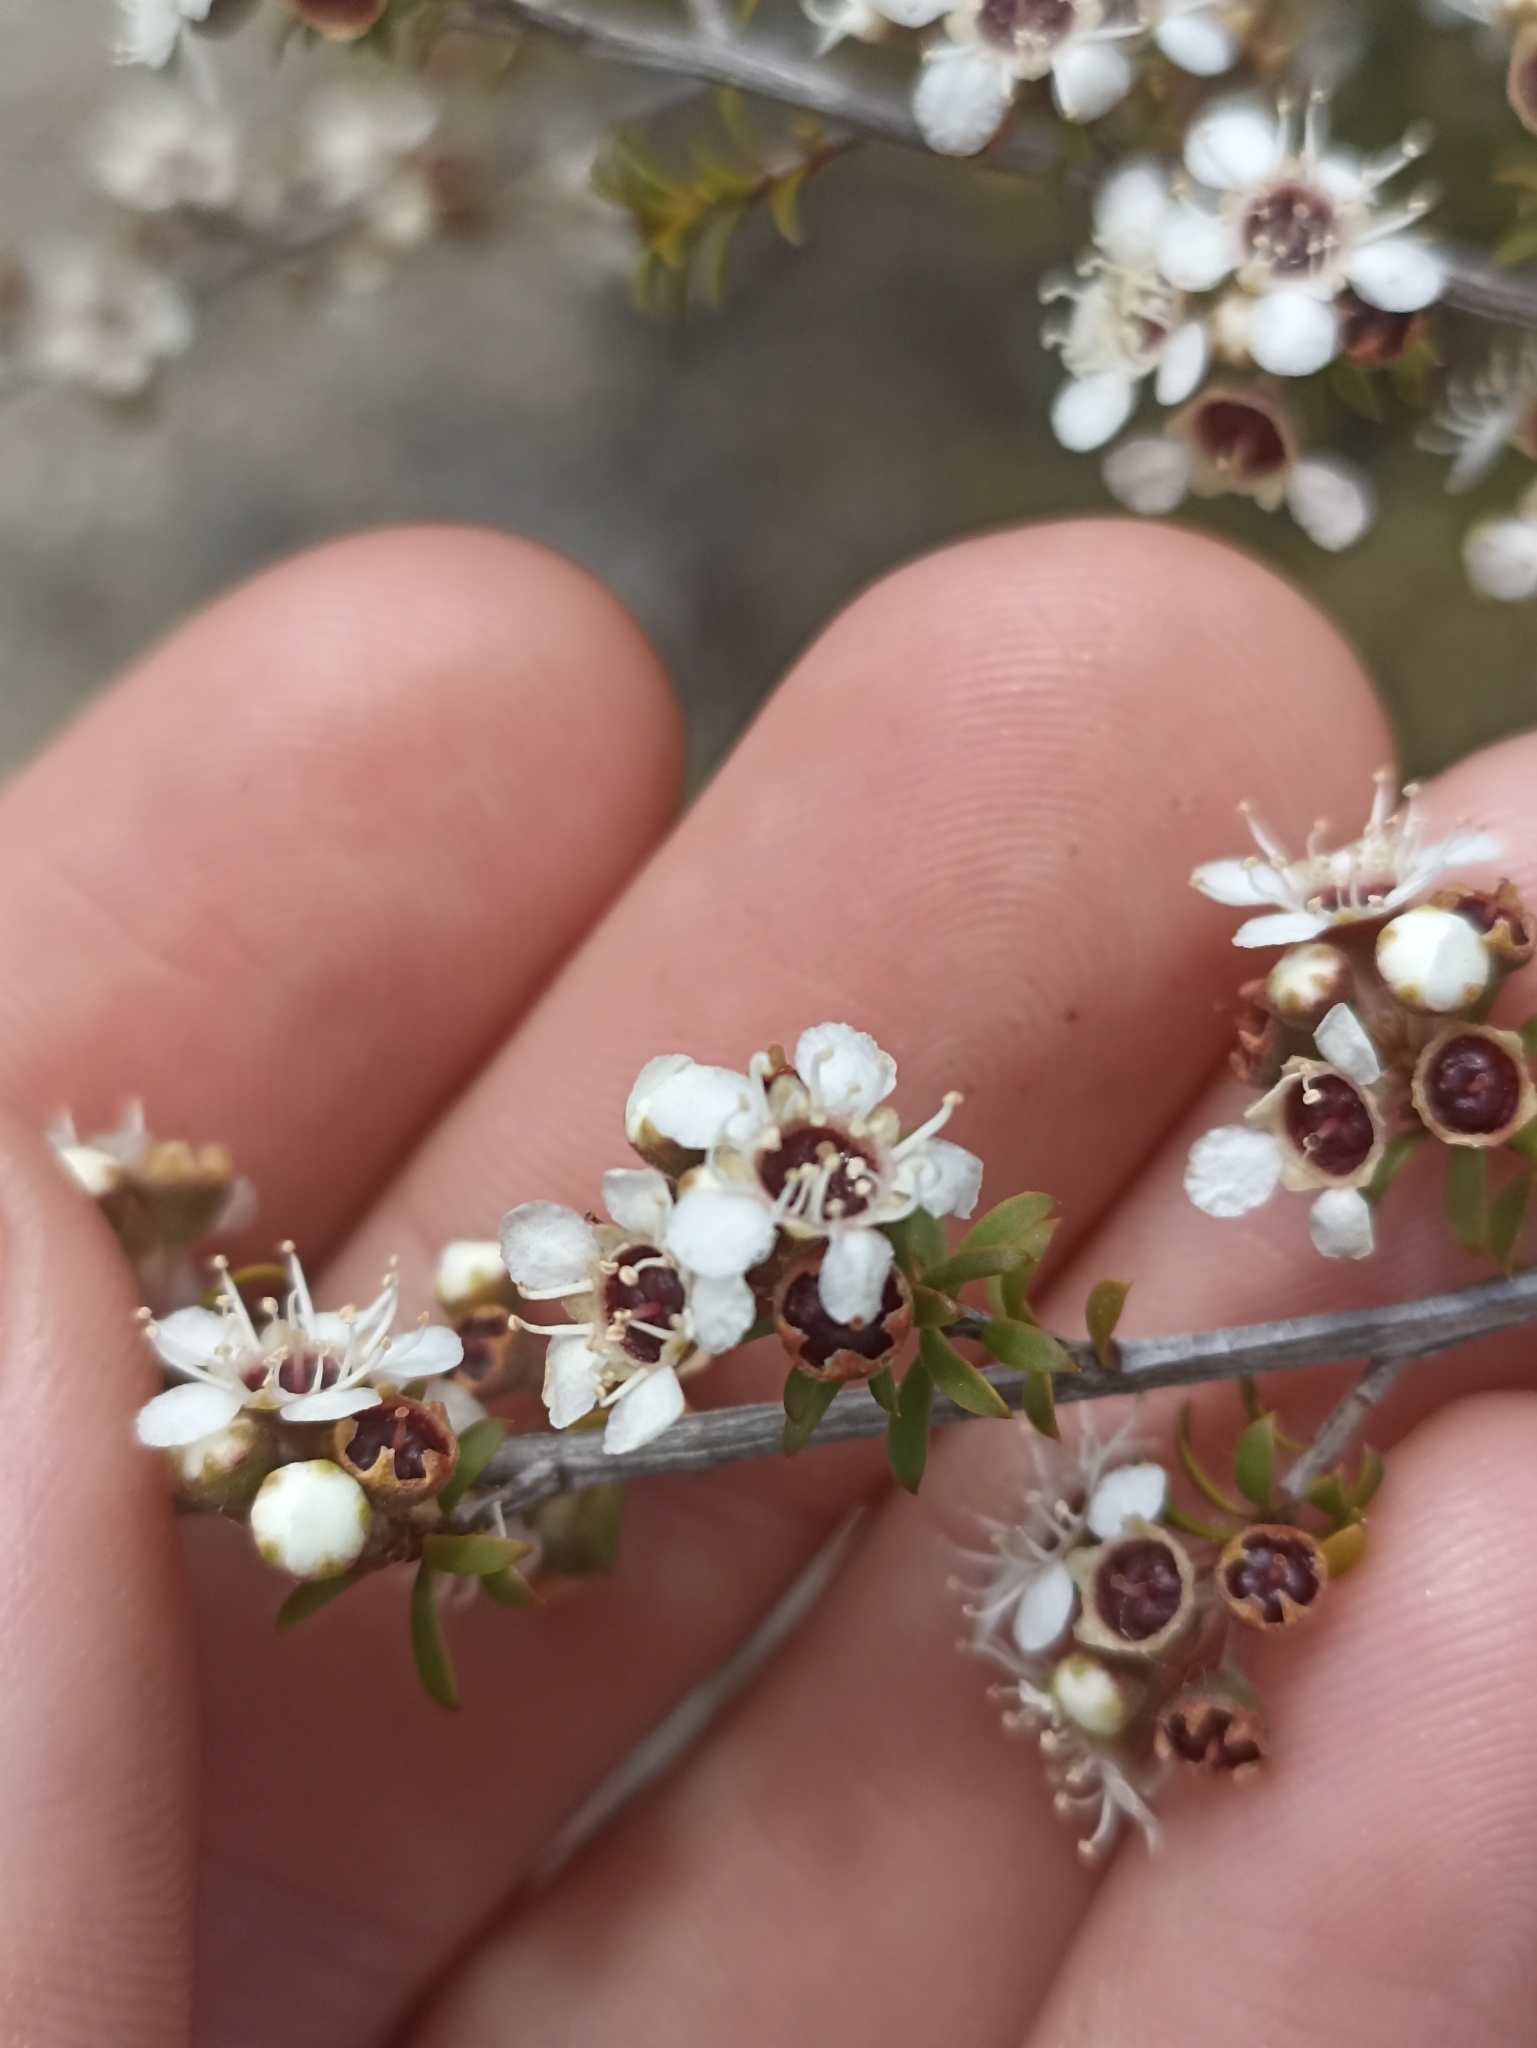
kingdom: Plantae
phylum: Tracheophyta
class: Magnoliopsida
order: Myrtales
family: Myrtaceae
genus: Kunzea
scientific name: Kunzea tenuicaulis
